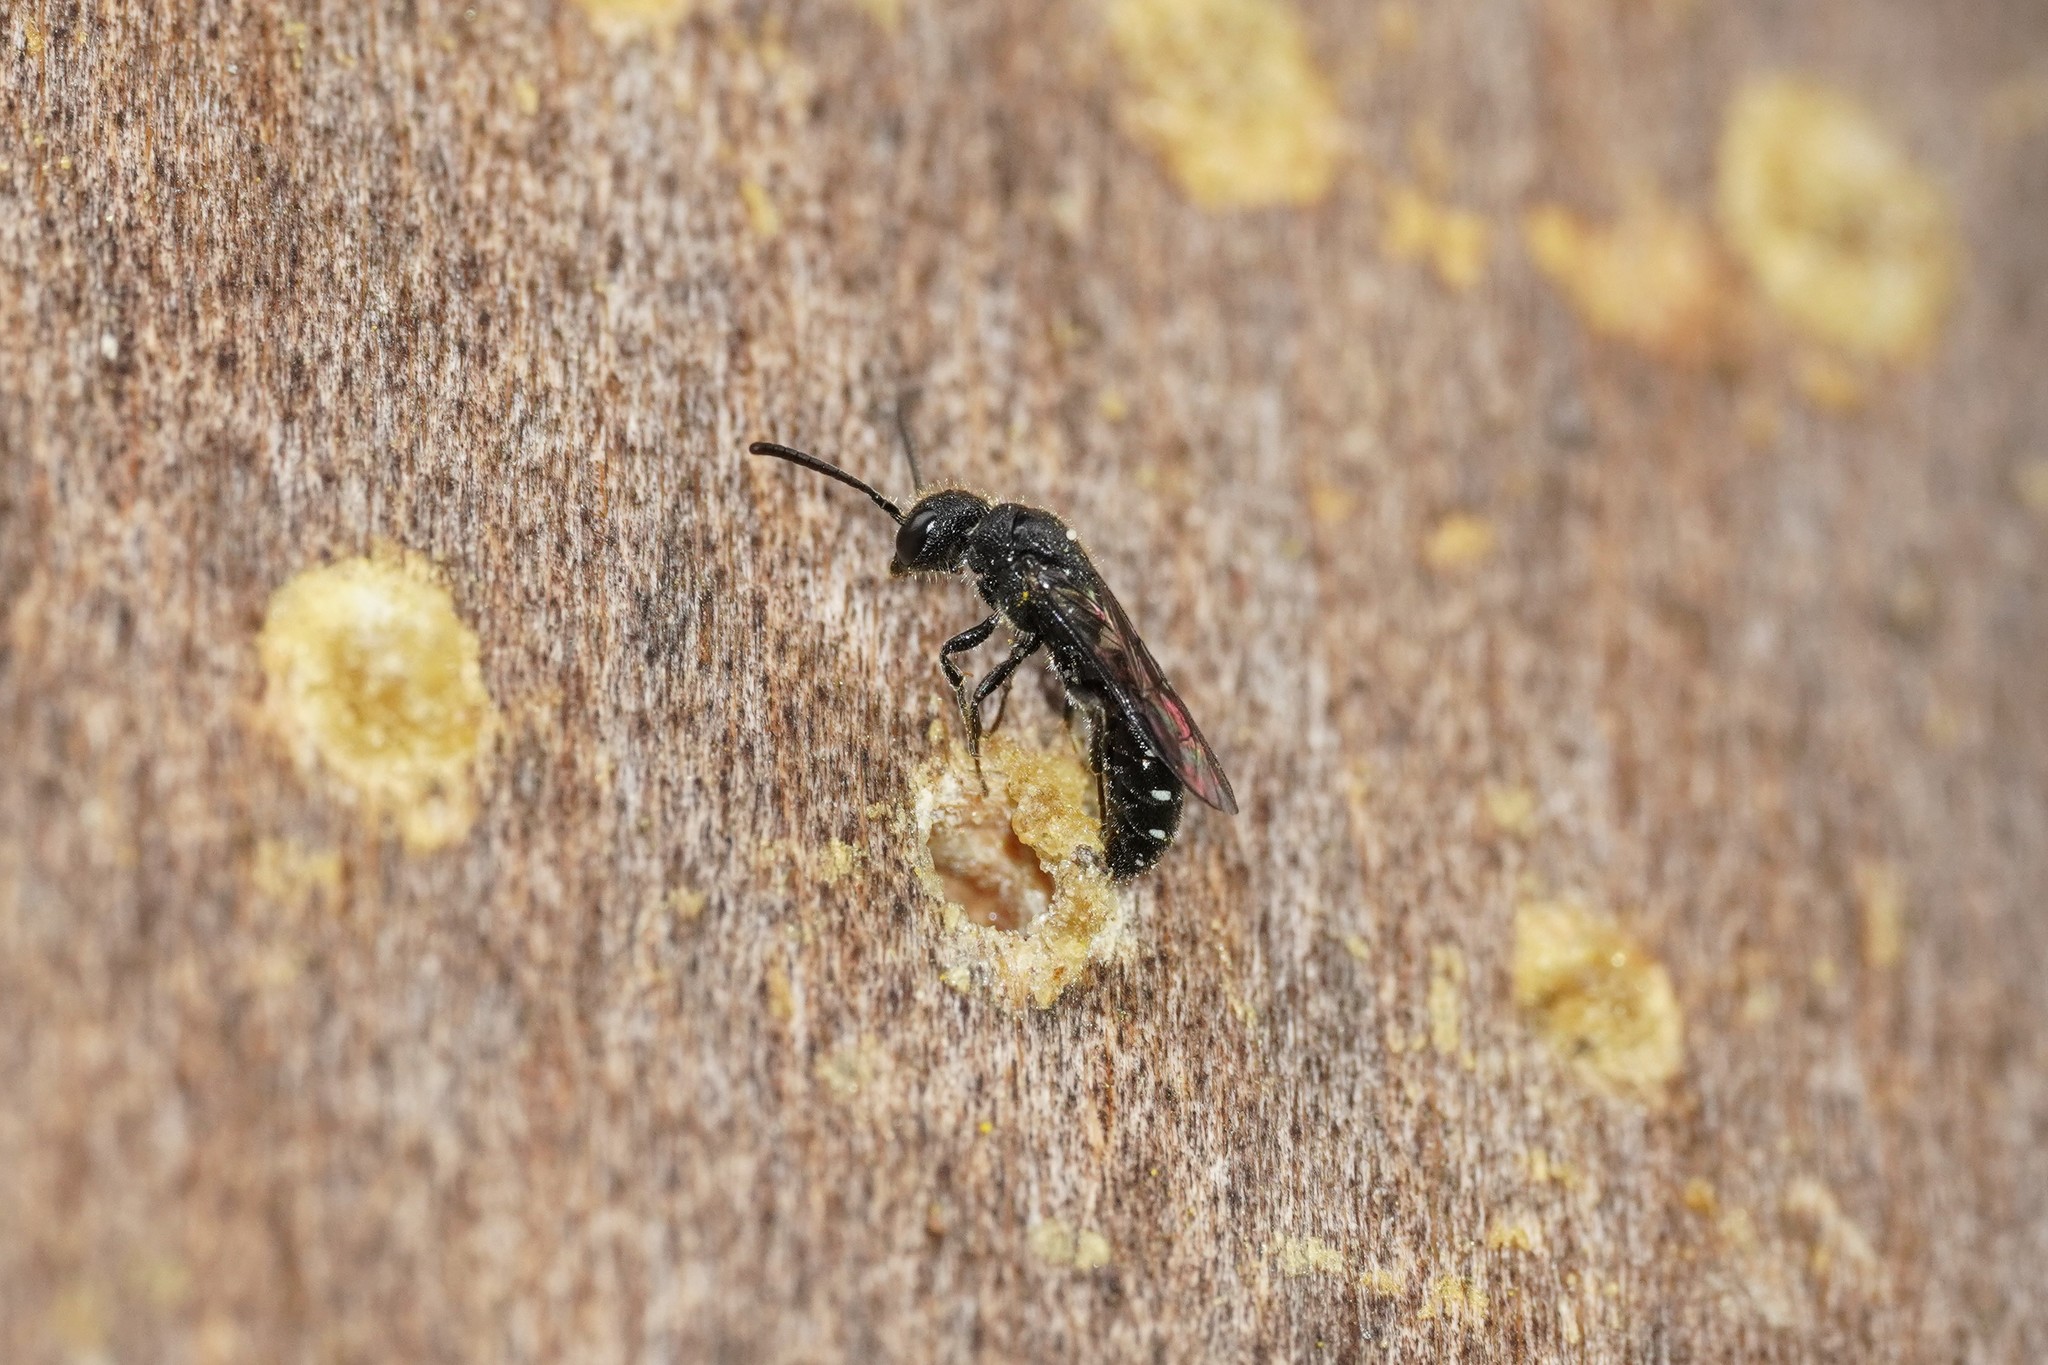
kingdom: Animalia
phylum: Arthropoda
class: Insecta
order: Hymenoptera
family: Sapygidae
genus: Sapygina
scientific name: Sapygina decemguttata
